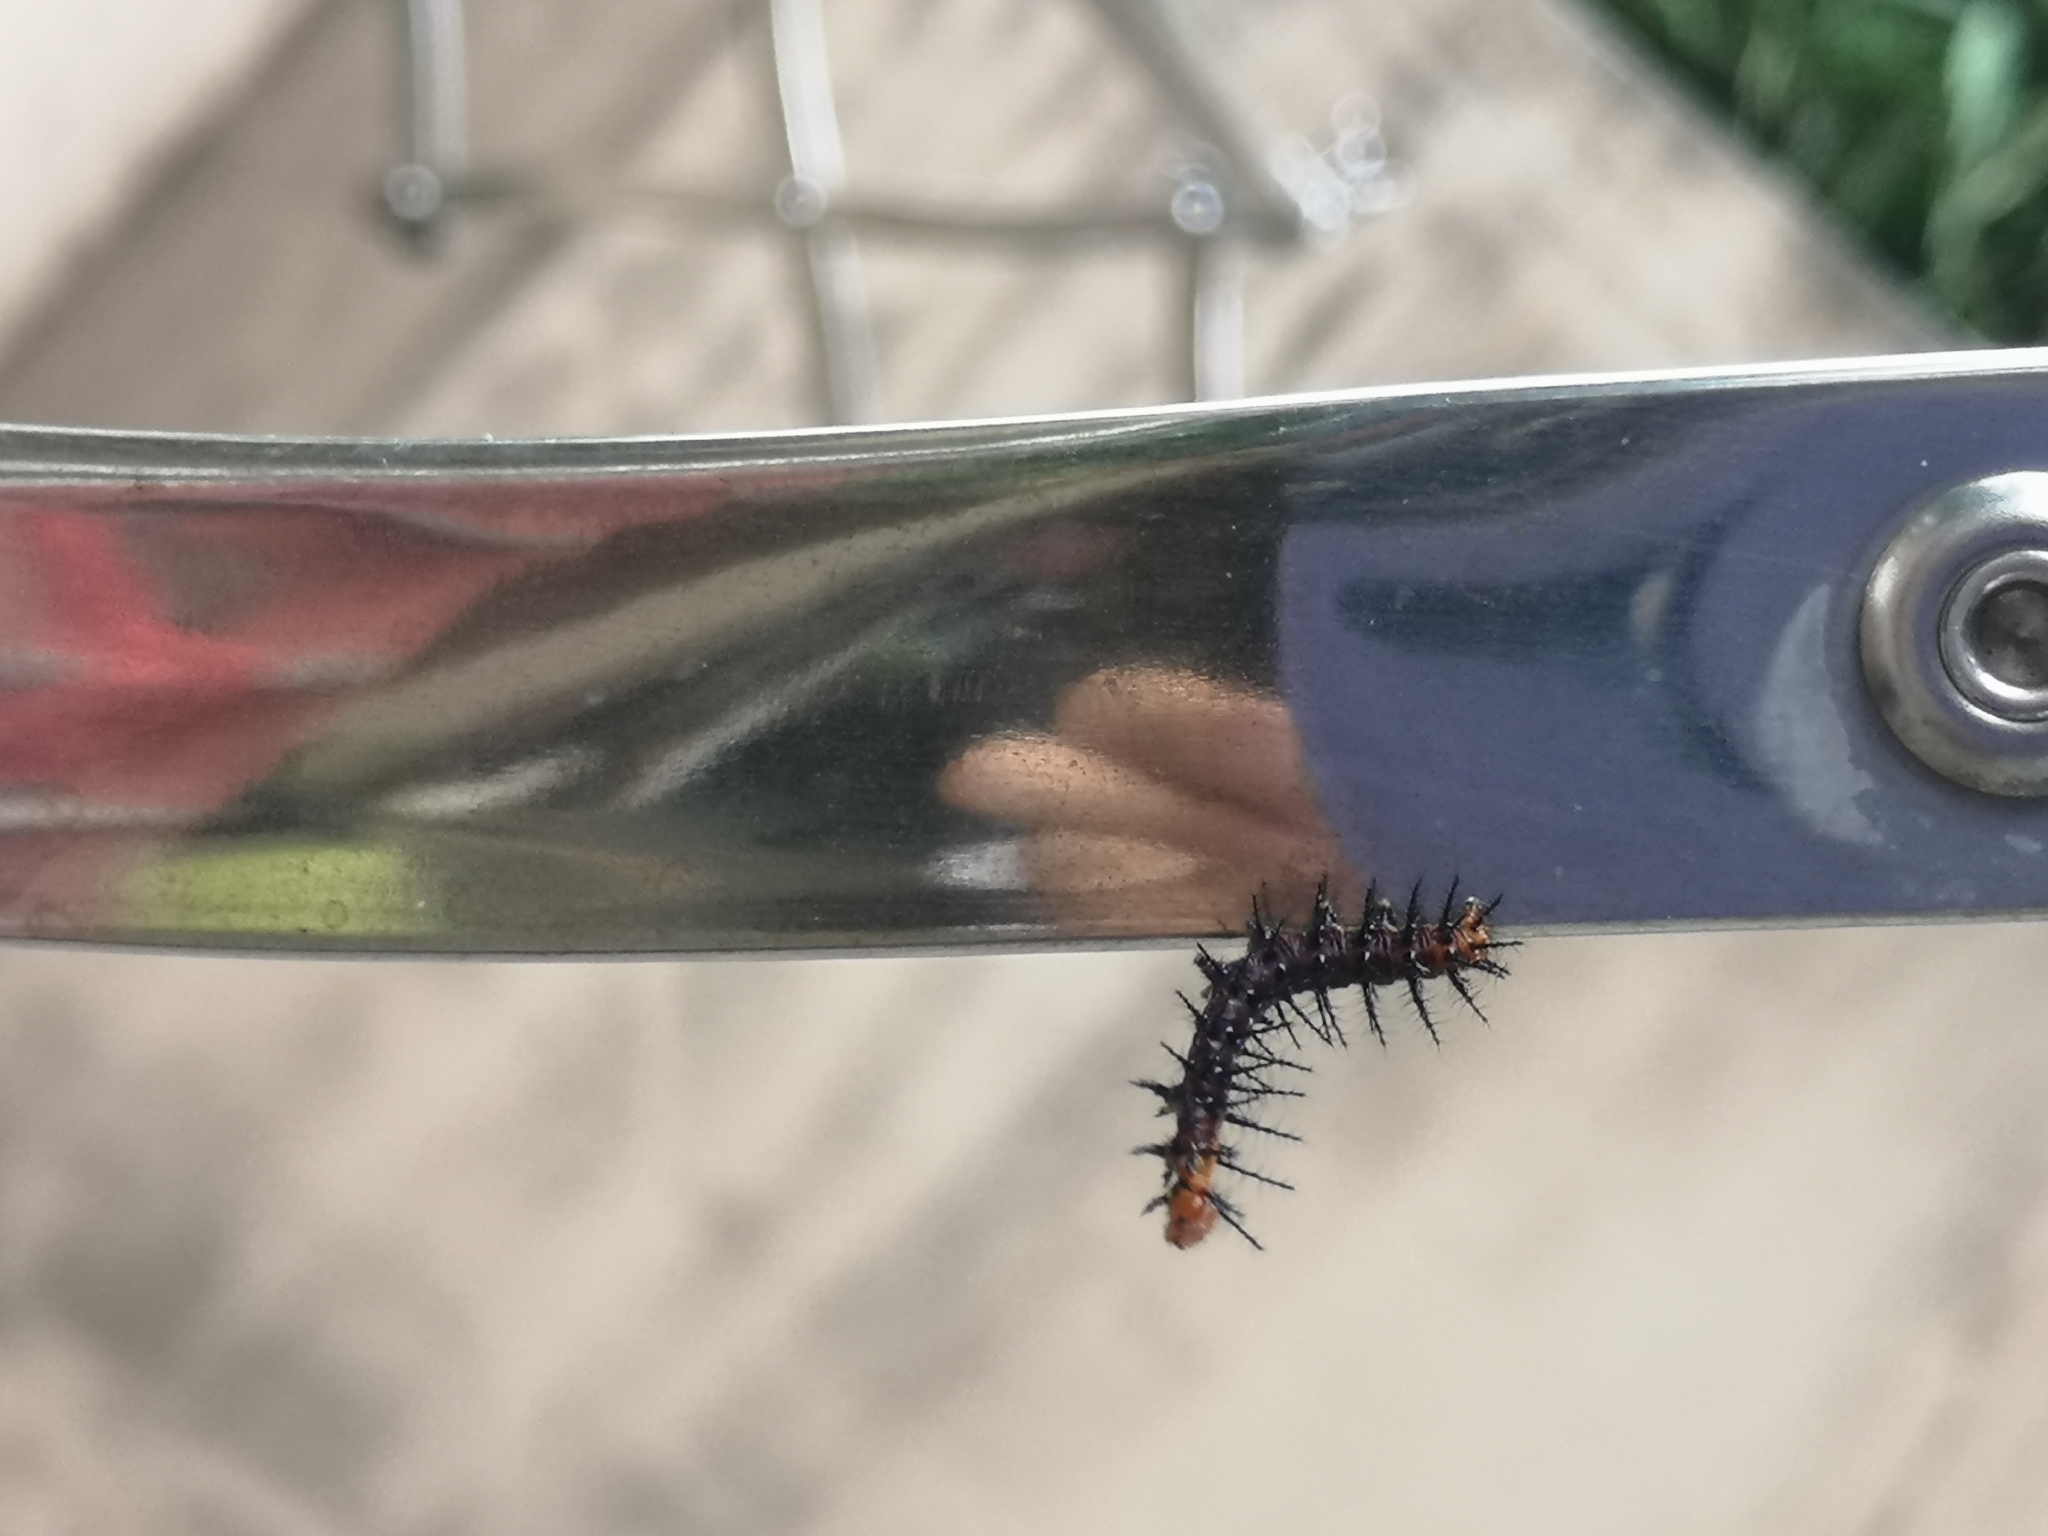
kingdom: Animalia
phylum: Arthropoda
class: Insecta
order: Lepidoptera
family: Nymphalidae
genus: Acraea
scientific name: Acraea terpsicore
